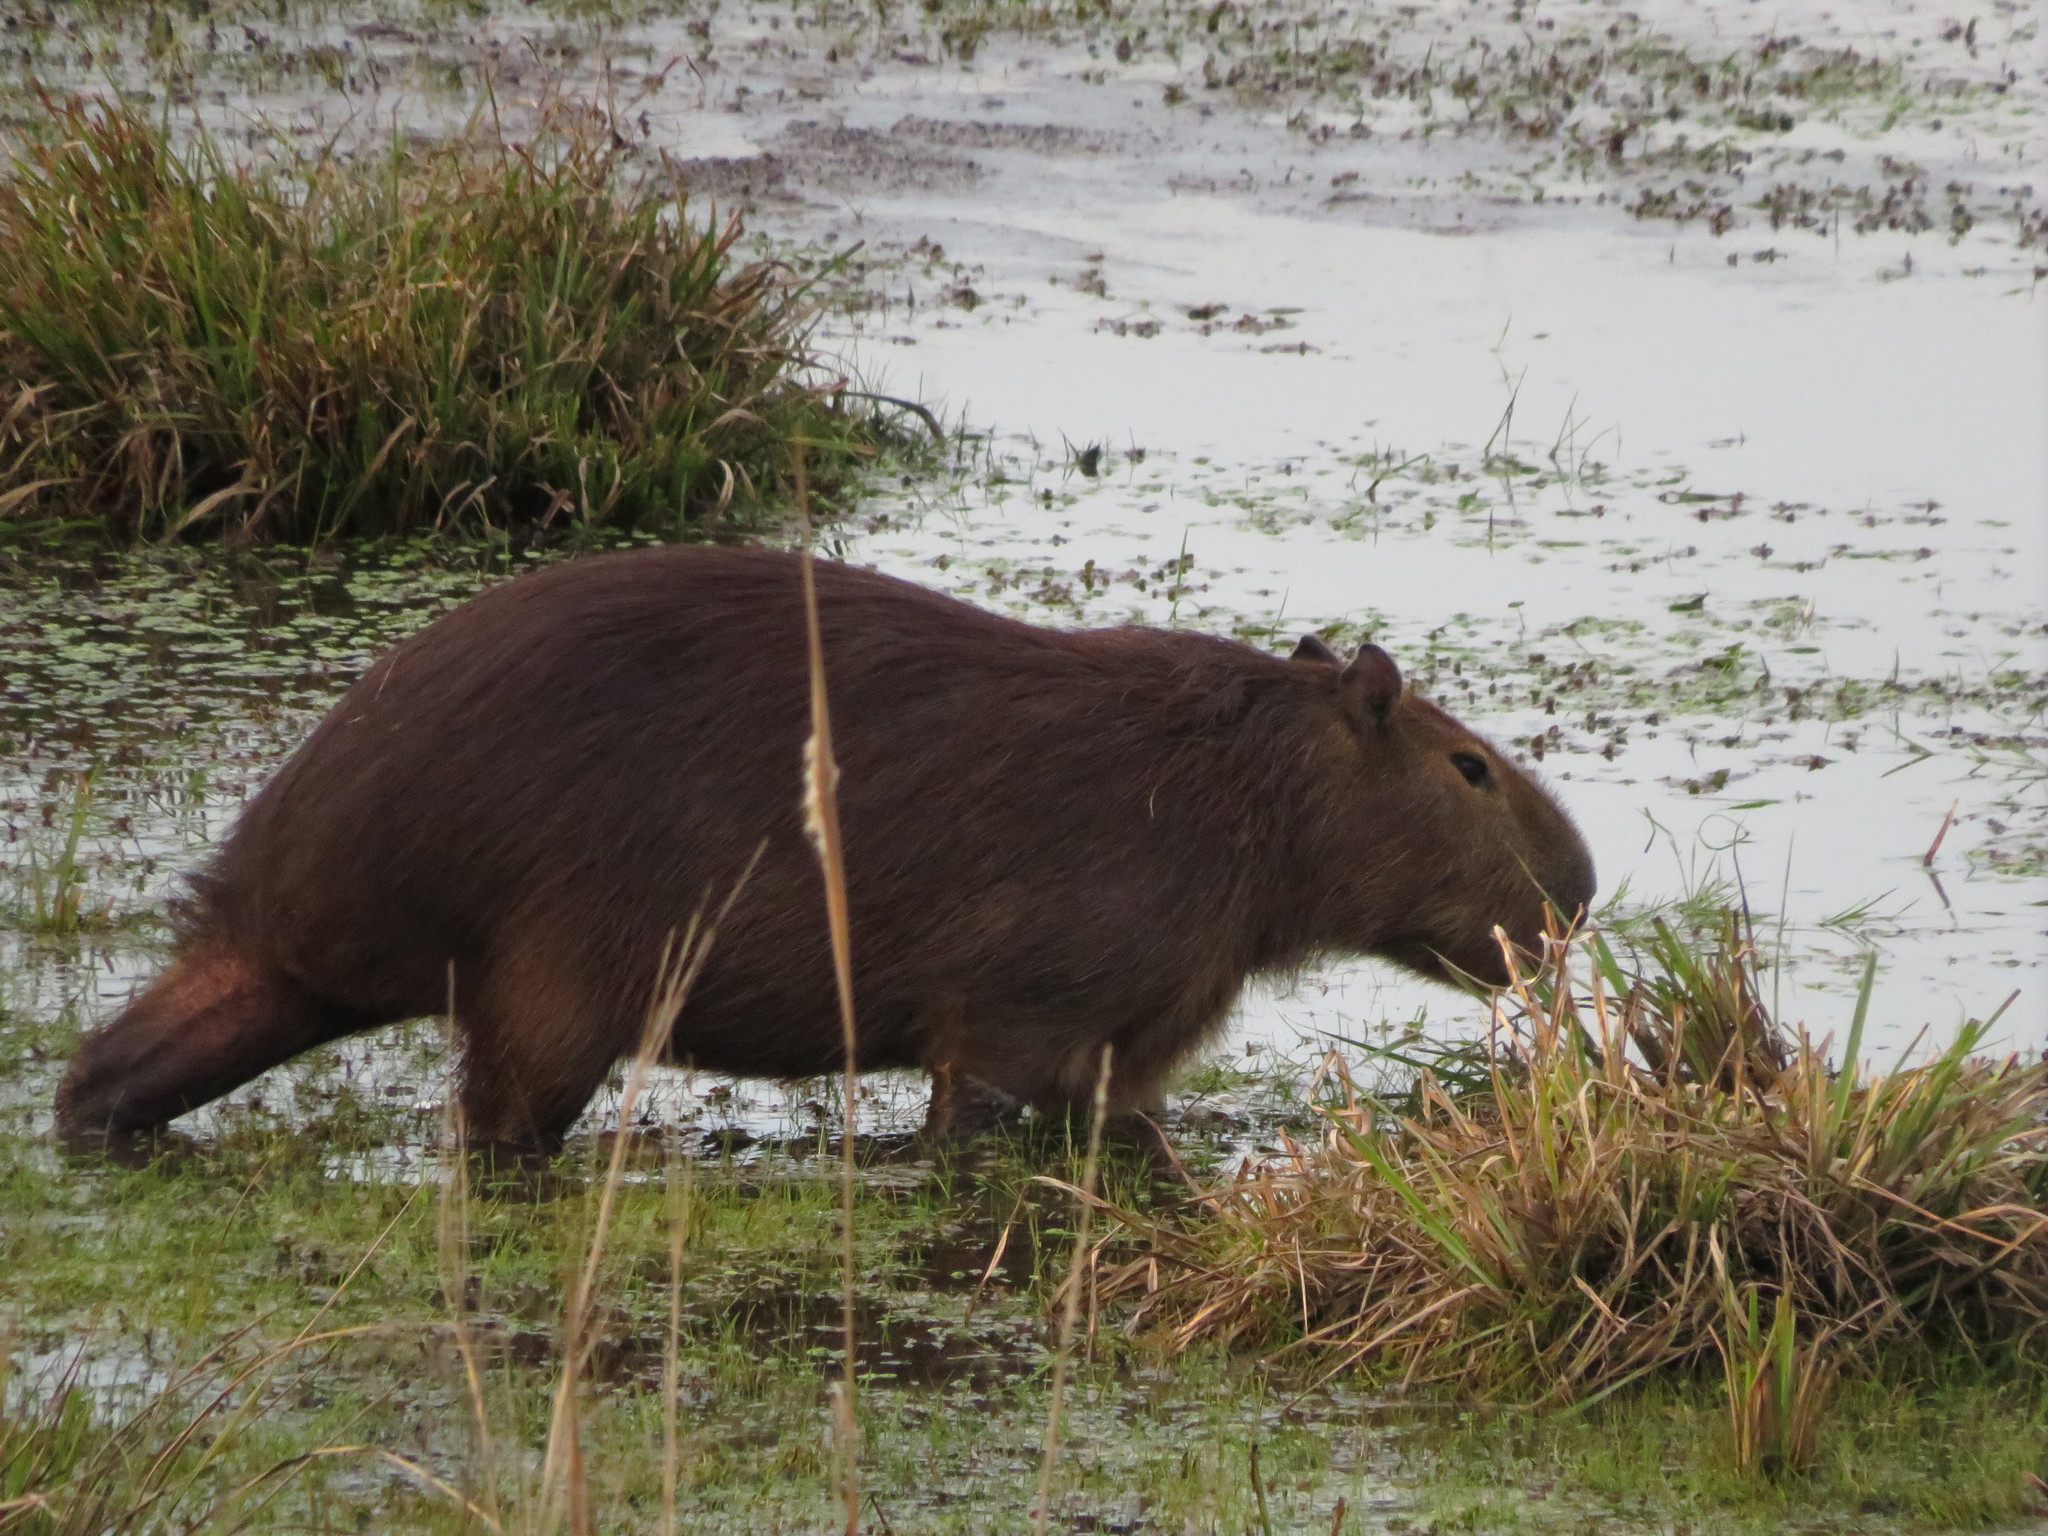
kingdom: Animalia
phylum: Chordata
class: Mammalia
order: Rodentia
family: Caviidae
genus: Hydrochoerus
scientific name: Hydrochoerus hydrochaeris
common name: Capybara
